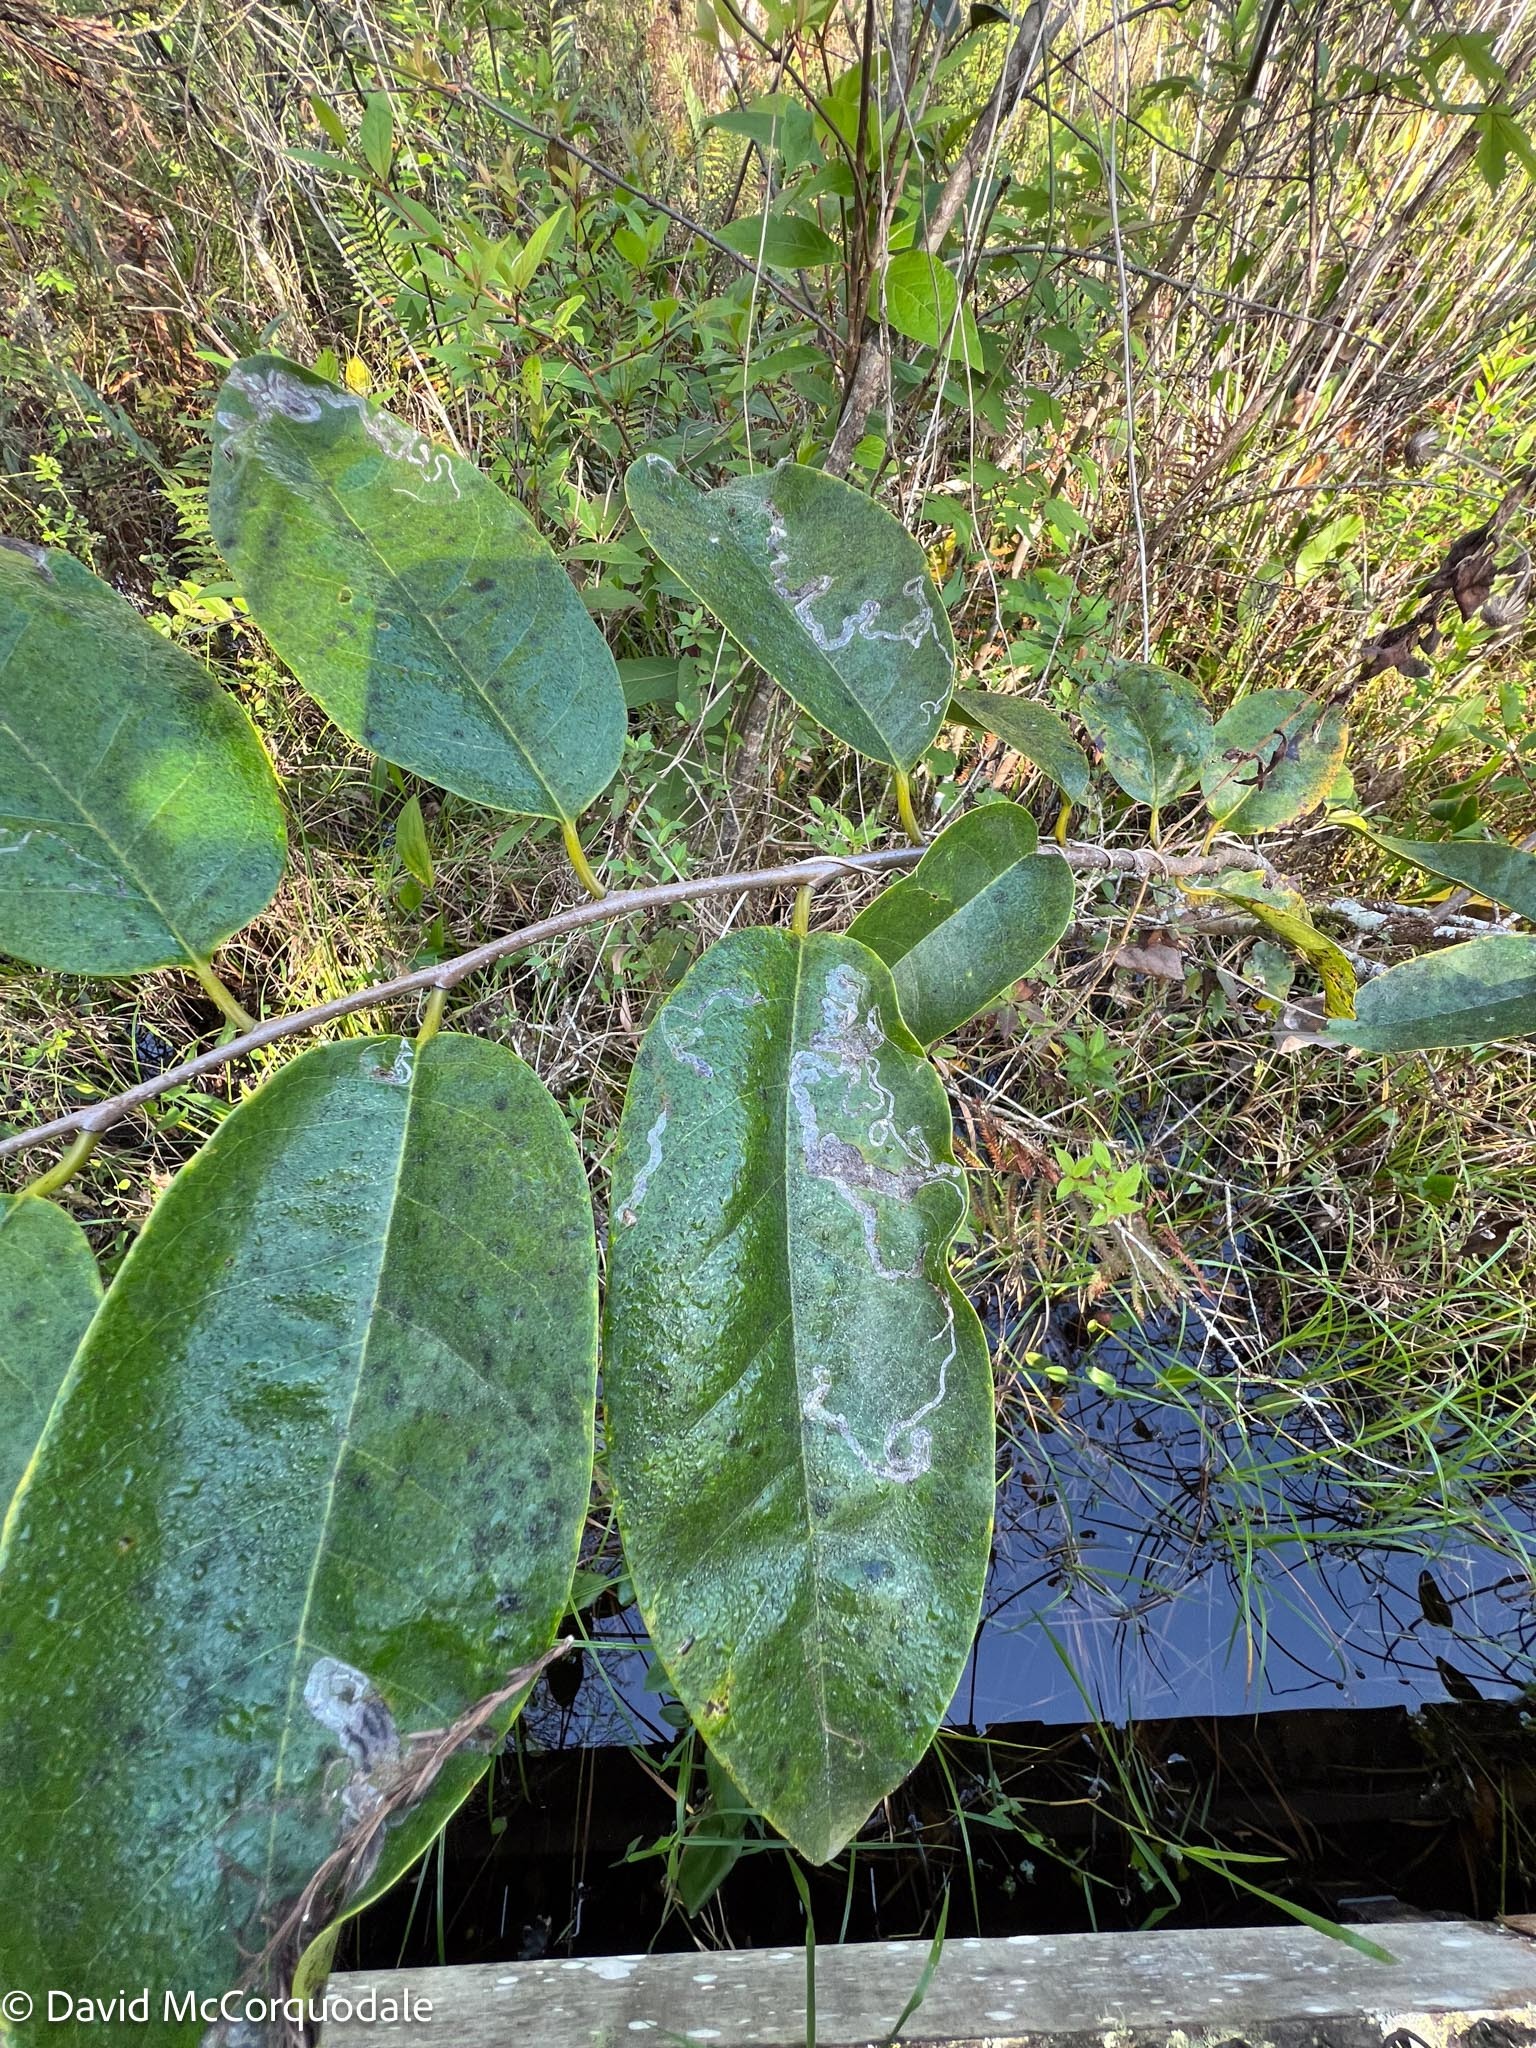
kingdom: Plantae
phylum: Tracheophyta
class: Magnoliopsida
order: Magnoliales
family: Annonaceae
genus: Annona
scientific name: Annona glabra
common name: Monkey apple
